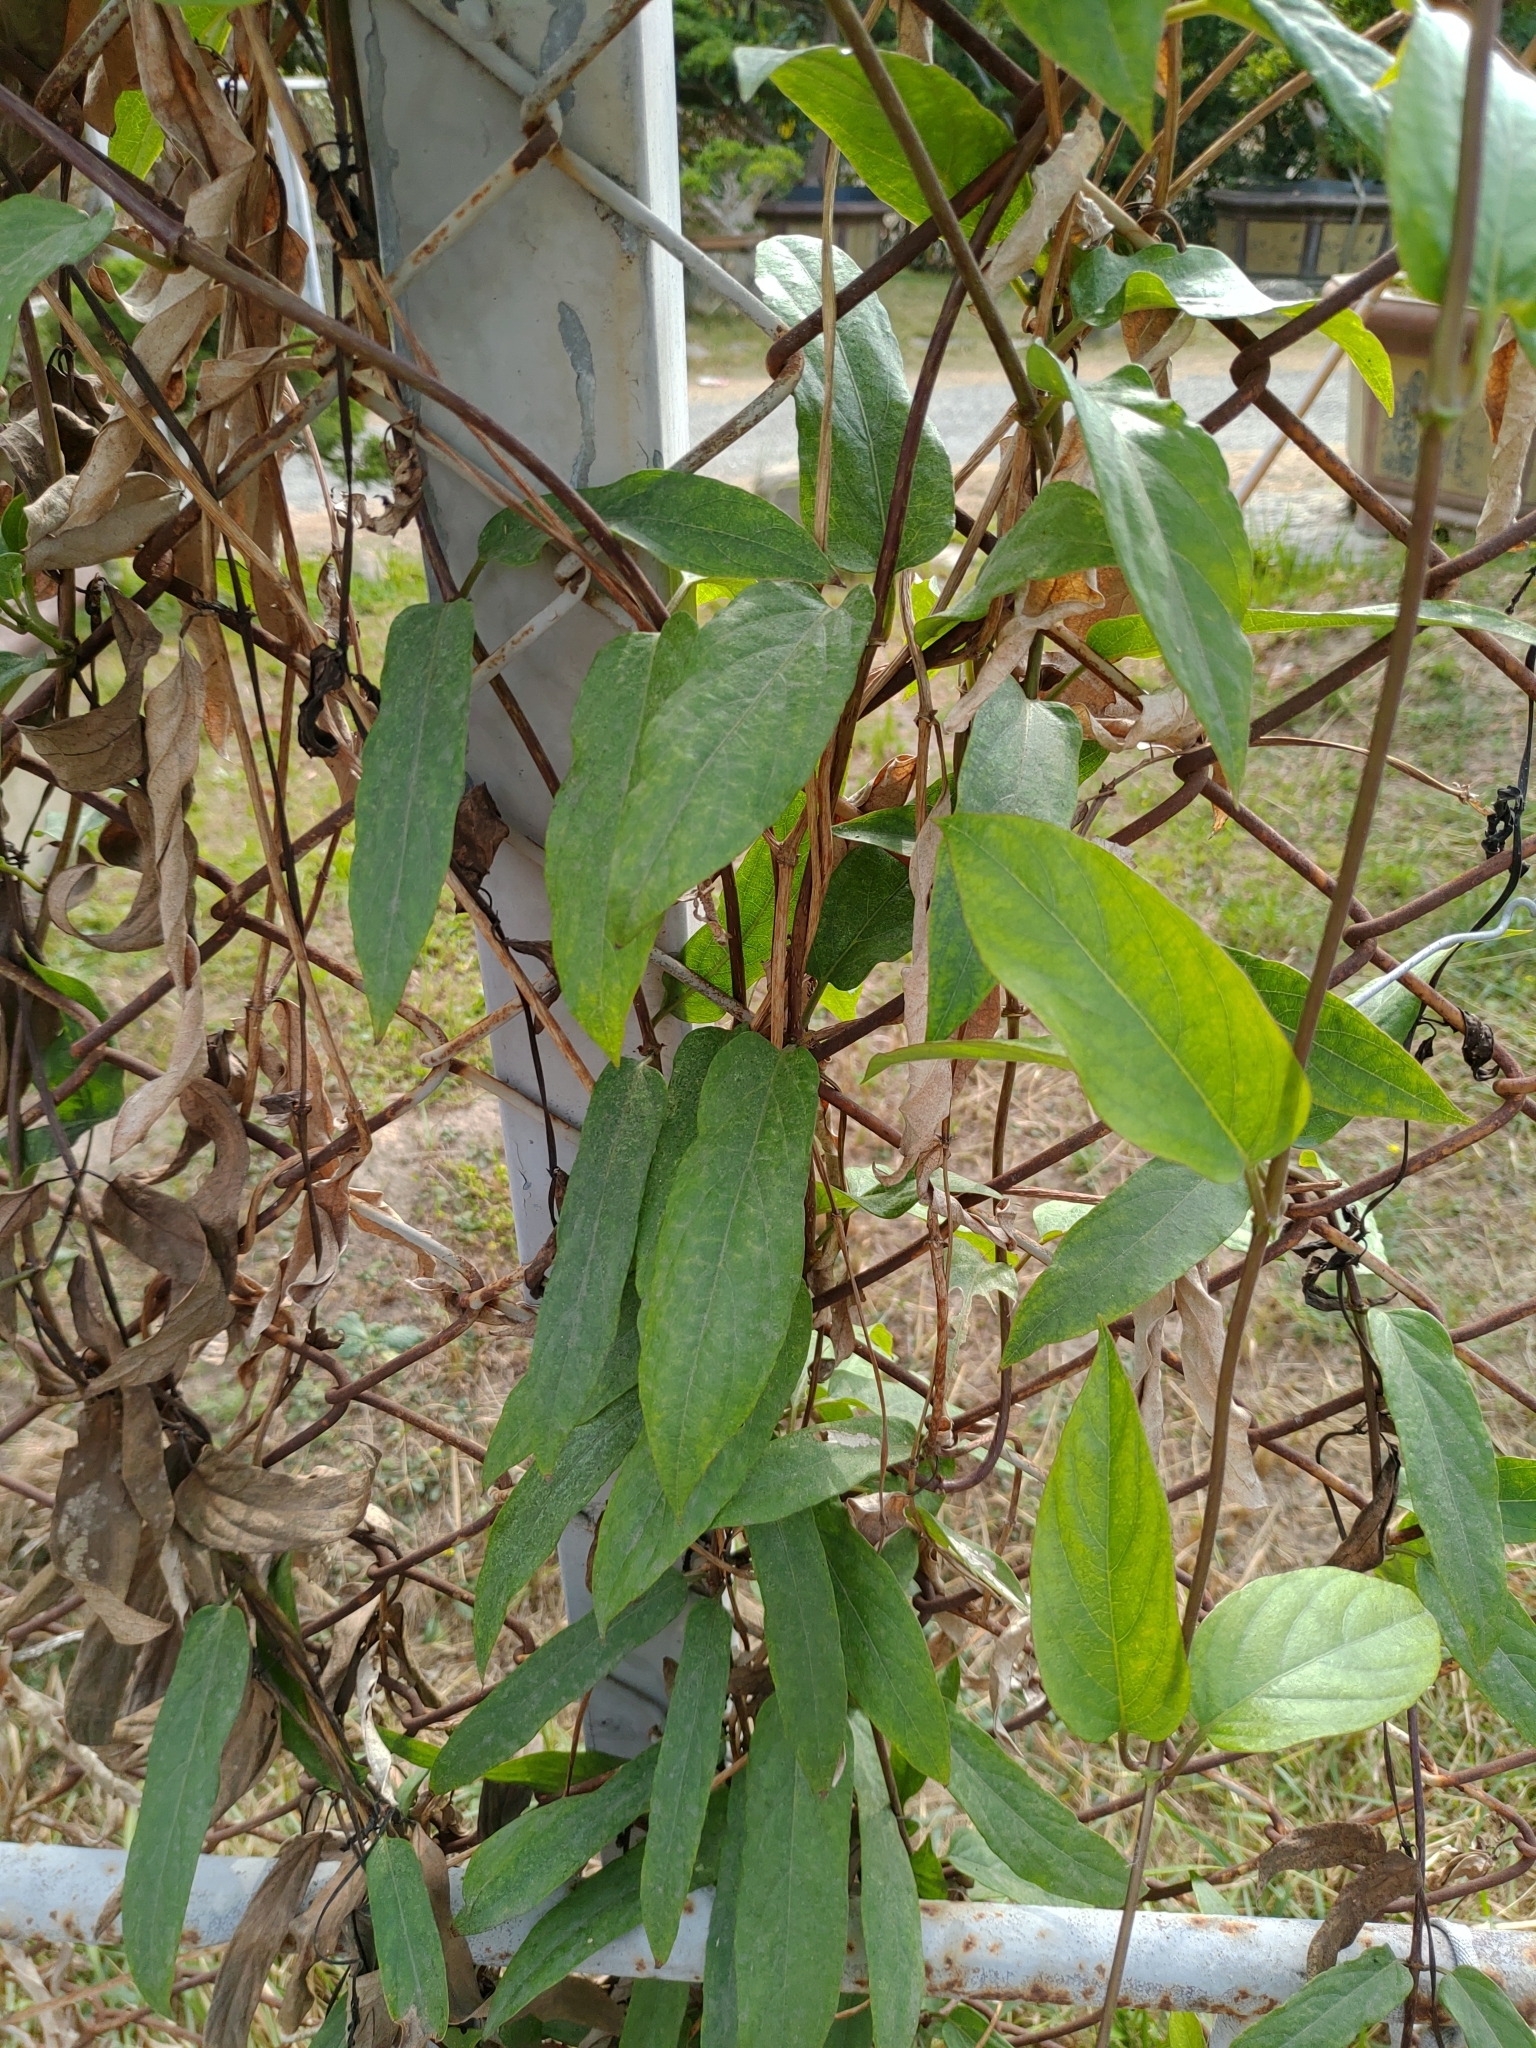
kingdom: Plantae
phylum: Tracheophyta
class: Magnoliopsida
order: Gentianales
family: Rubiaceae
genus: Paederia
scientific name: Paederia foetida
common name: Stinkvine
